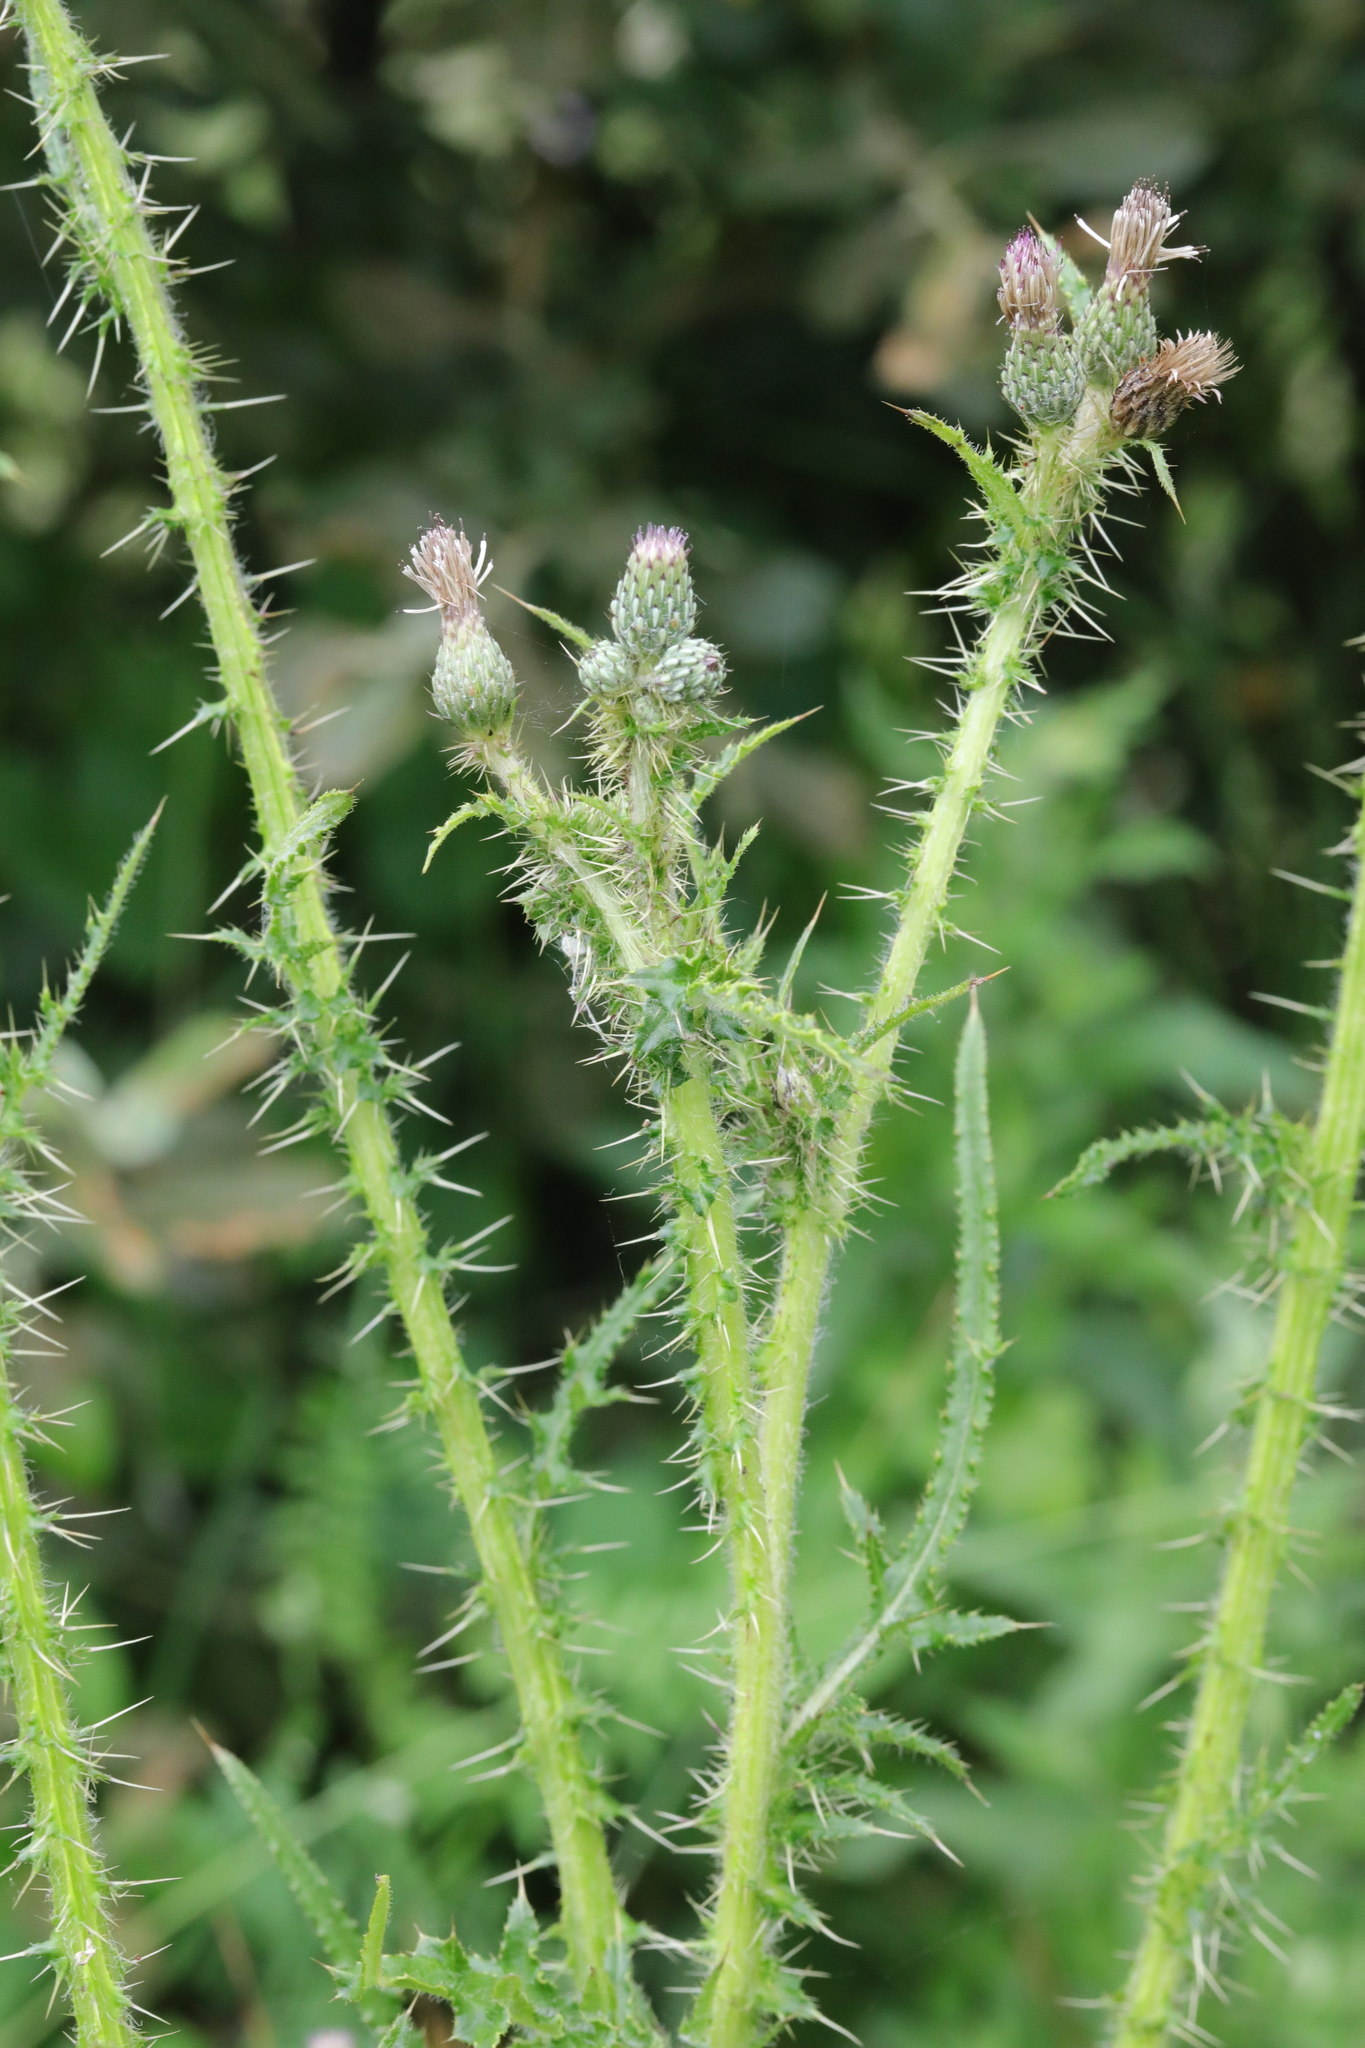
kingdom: Plantae
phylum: Tracheophyta
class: Magnoliopsida
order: Asterales
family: Asteraceae
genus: Cirsium
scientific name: Cirsium palustre
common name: Marsh thistle
